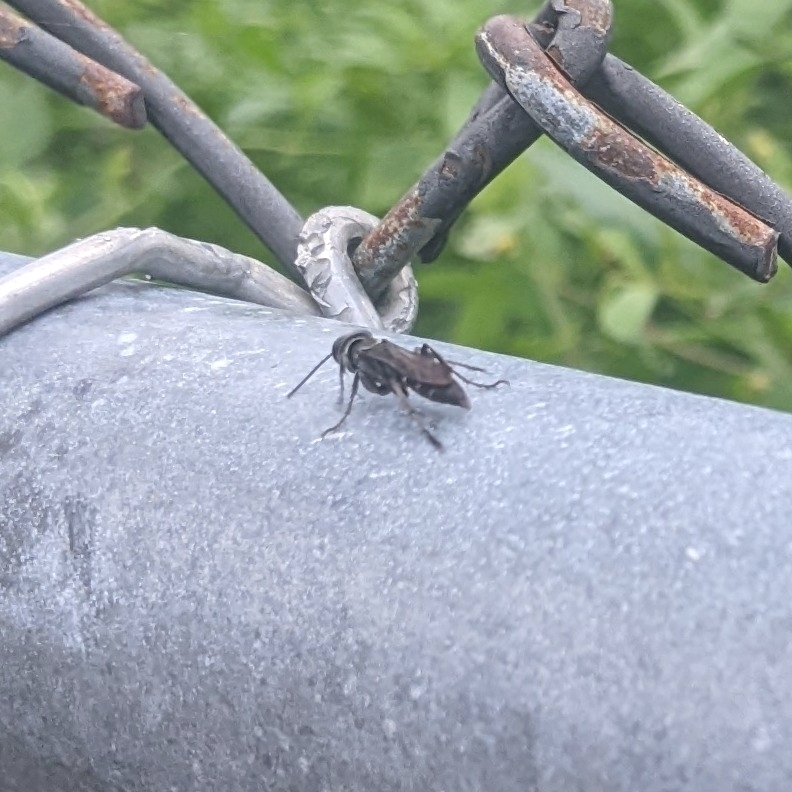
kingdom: Animalia
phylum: Arthropoda
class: Insecta
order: Hymenoptera
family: Crabronidae
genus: Lyroda
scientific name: Lyroda subita
